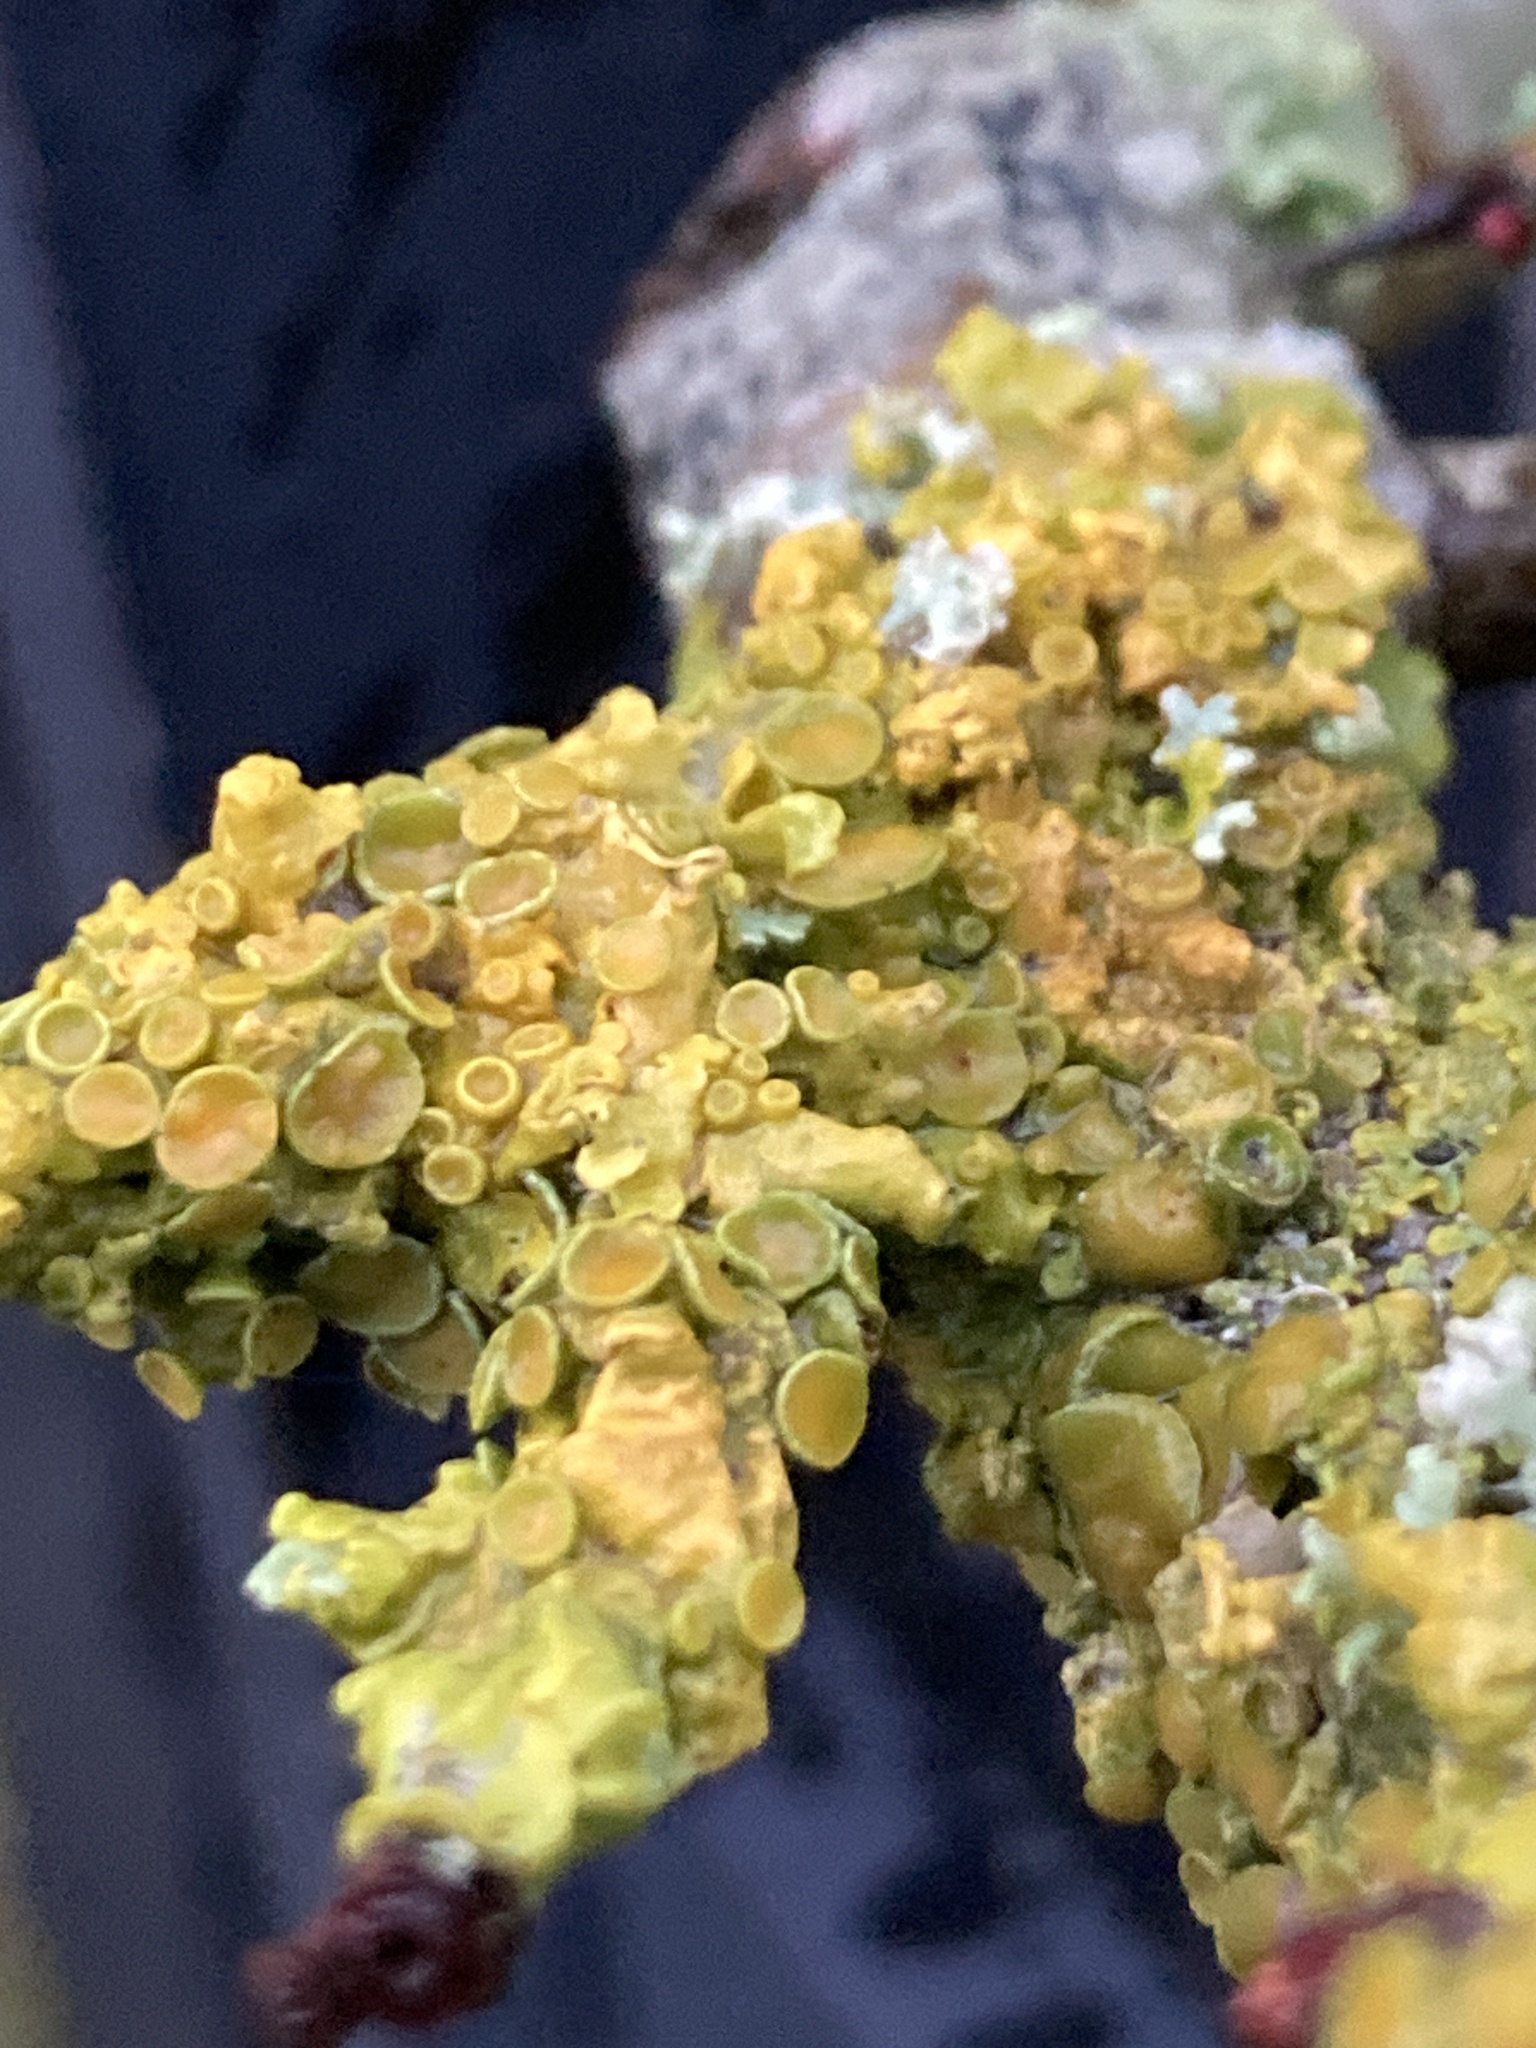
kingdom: Fungi
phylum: Ascomycota
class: Lecanoromycetes
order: Teloschistales
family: Teloschistaceae
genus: Xanthoria
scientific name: Xanthoria parietina
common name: Common orange lichen
